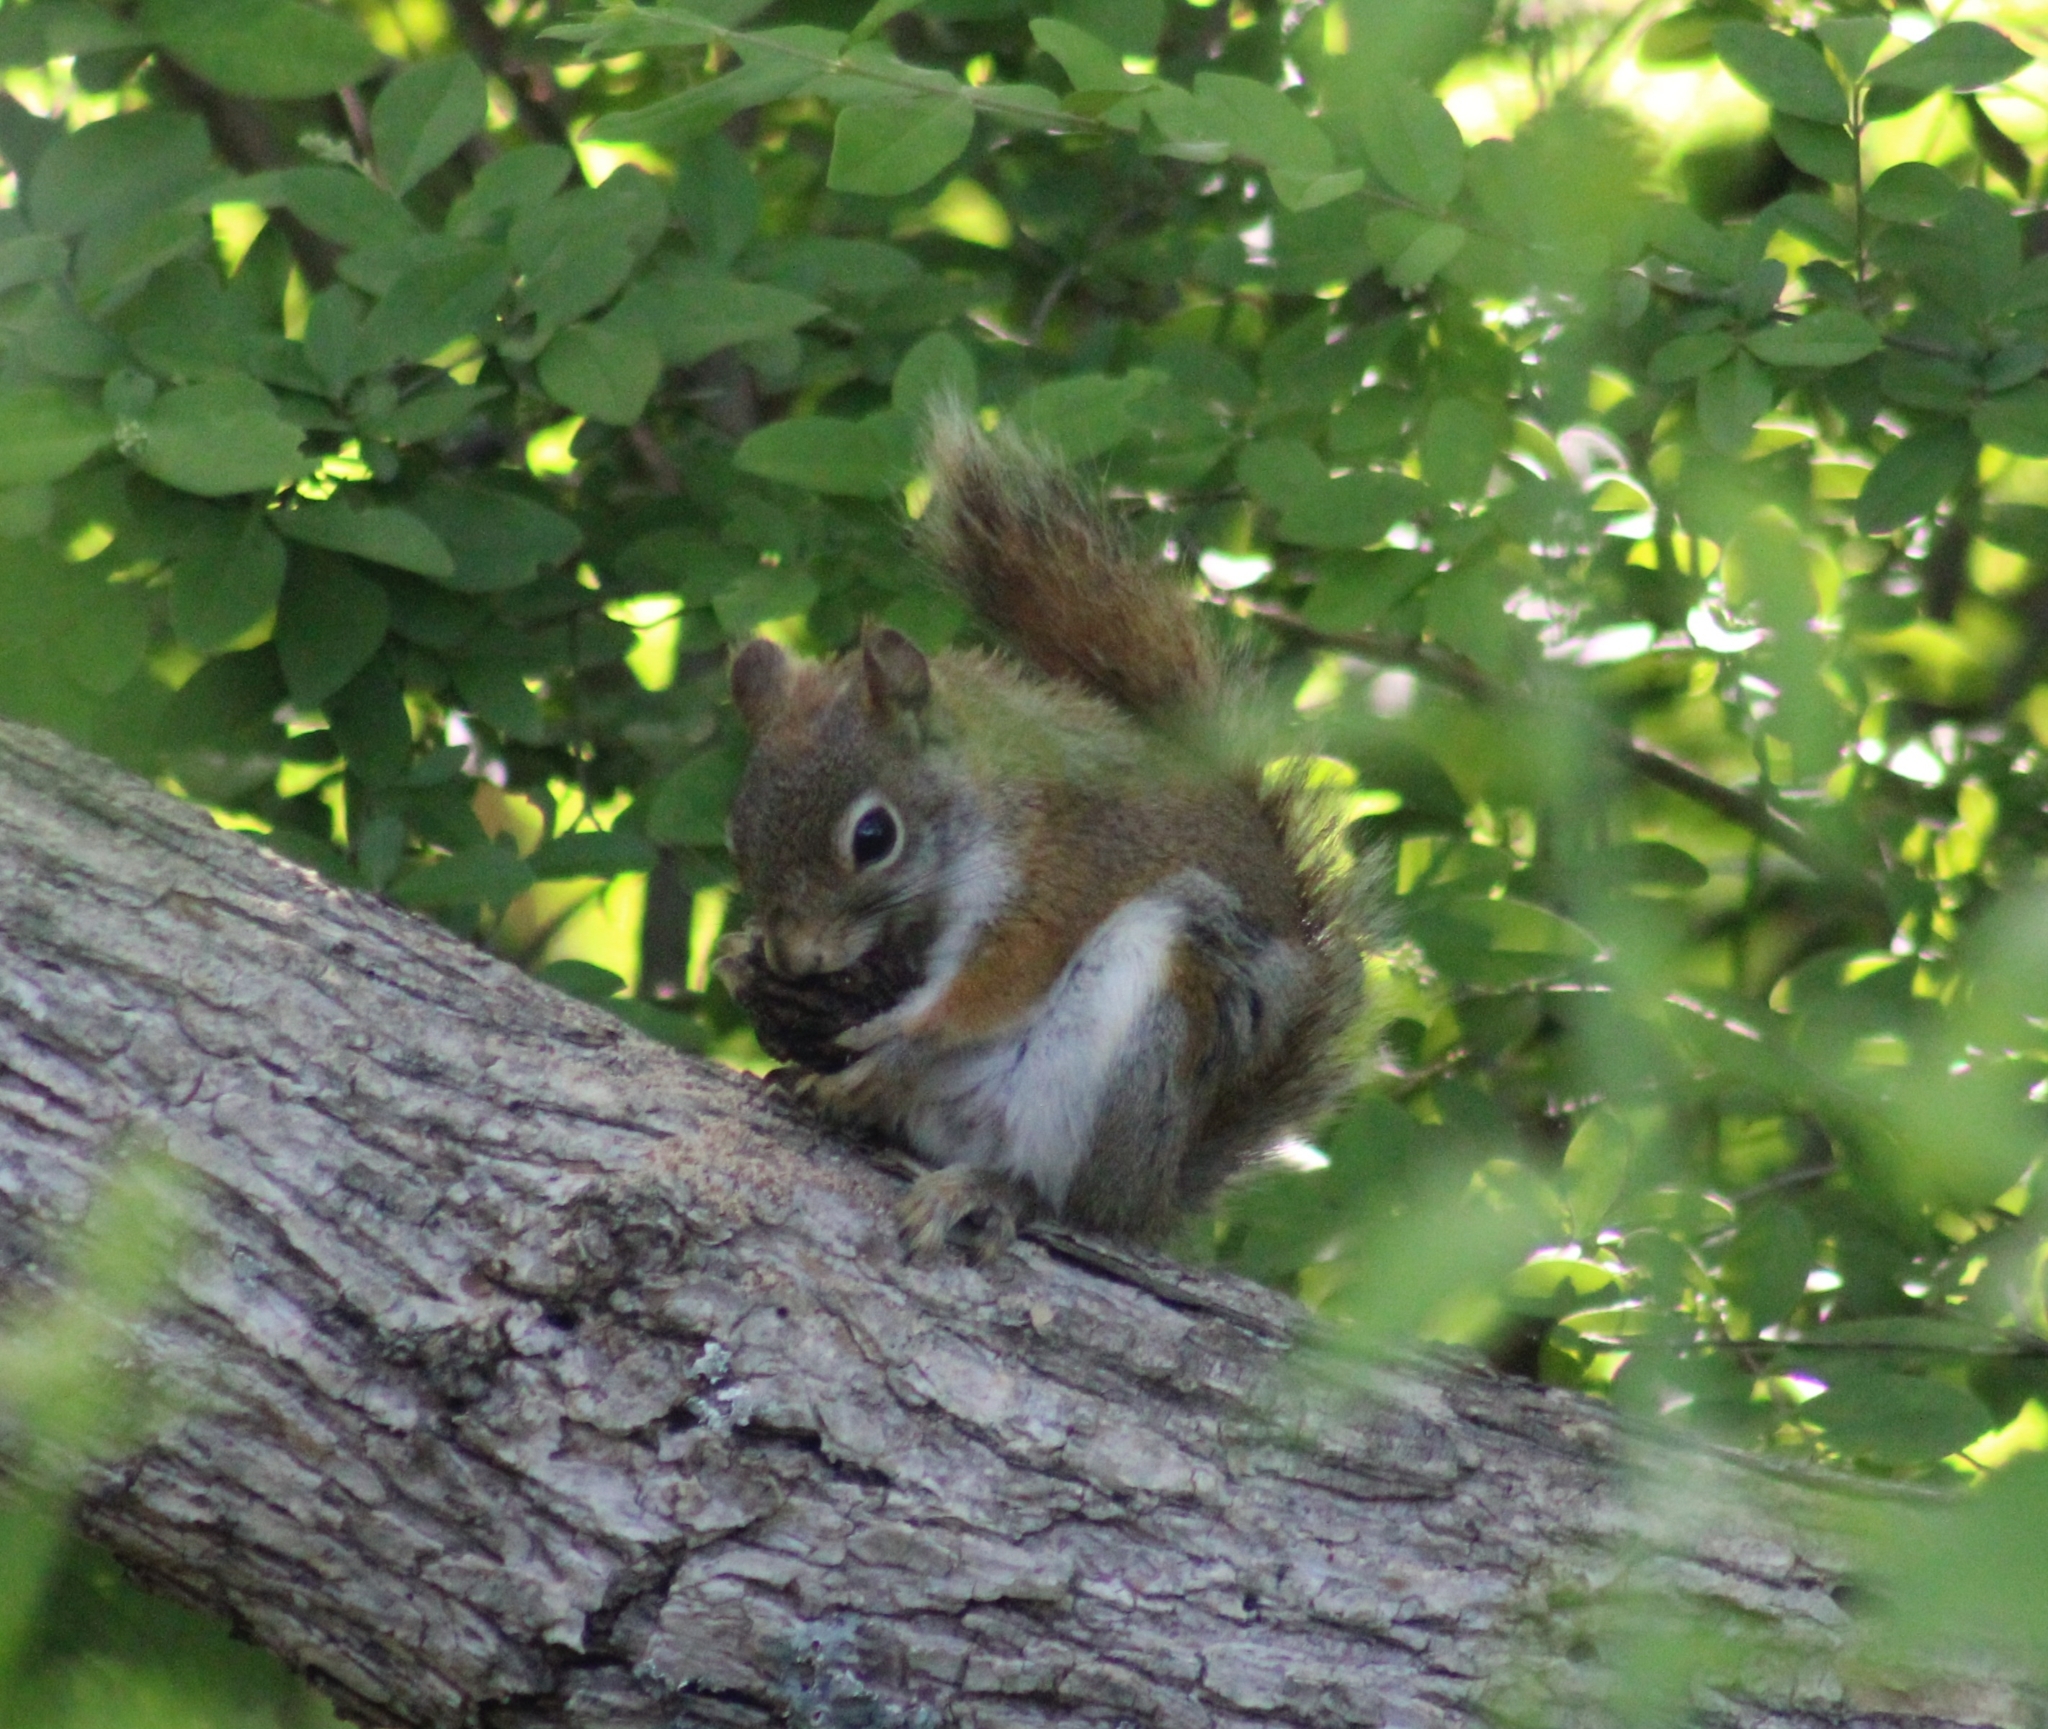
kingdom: Animalia
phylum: Chordata
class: Mammalia
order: Rodentia
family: Sciuridae
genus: Tamiasciurus
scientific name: Tamiasciurus hudsonicus
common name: Red squirrel
